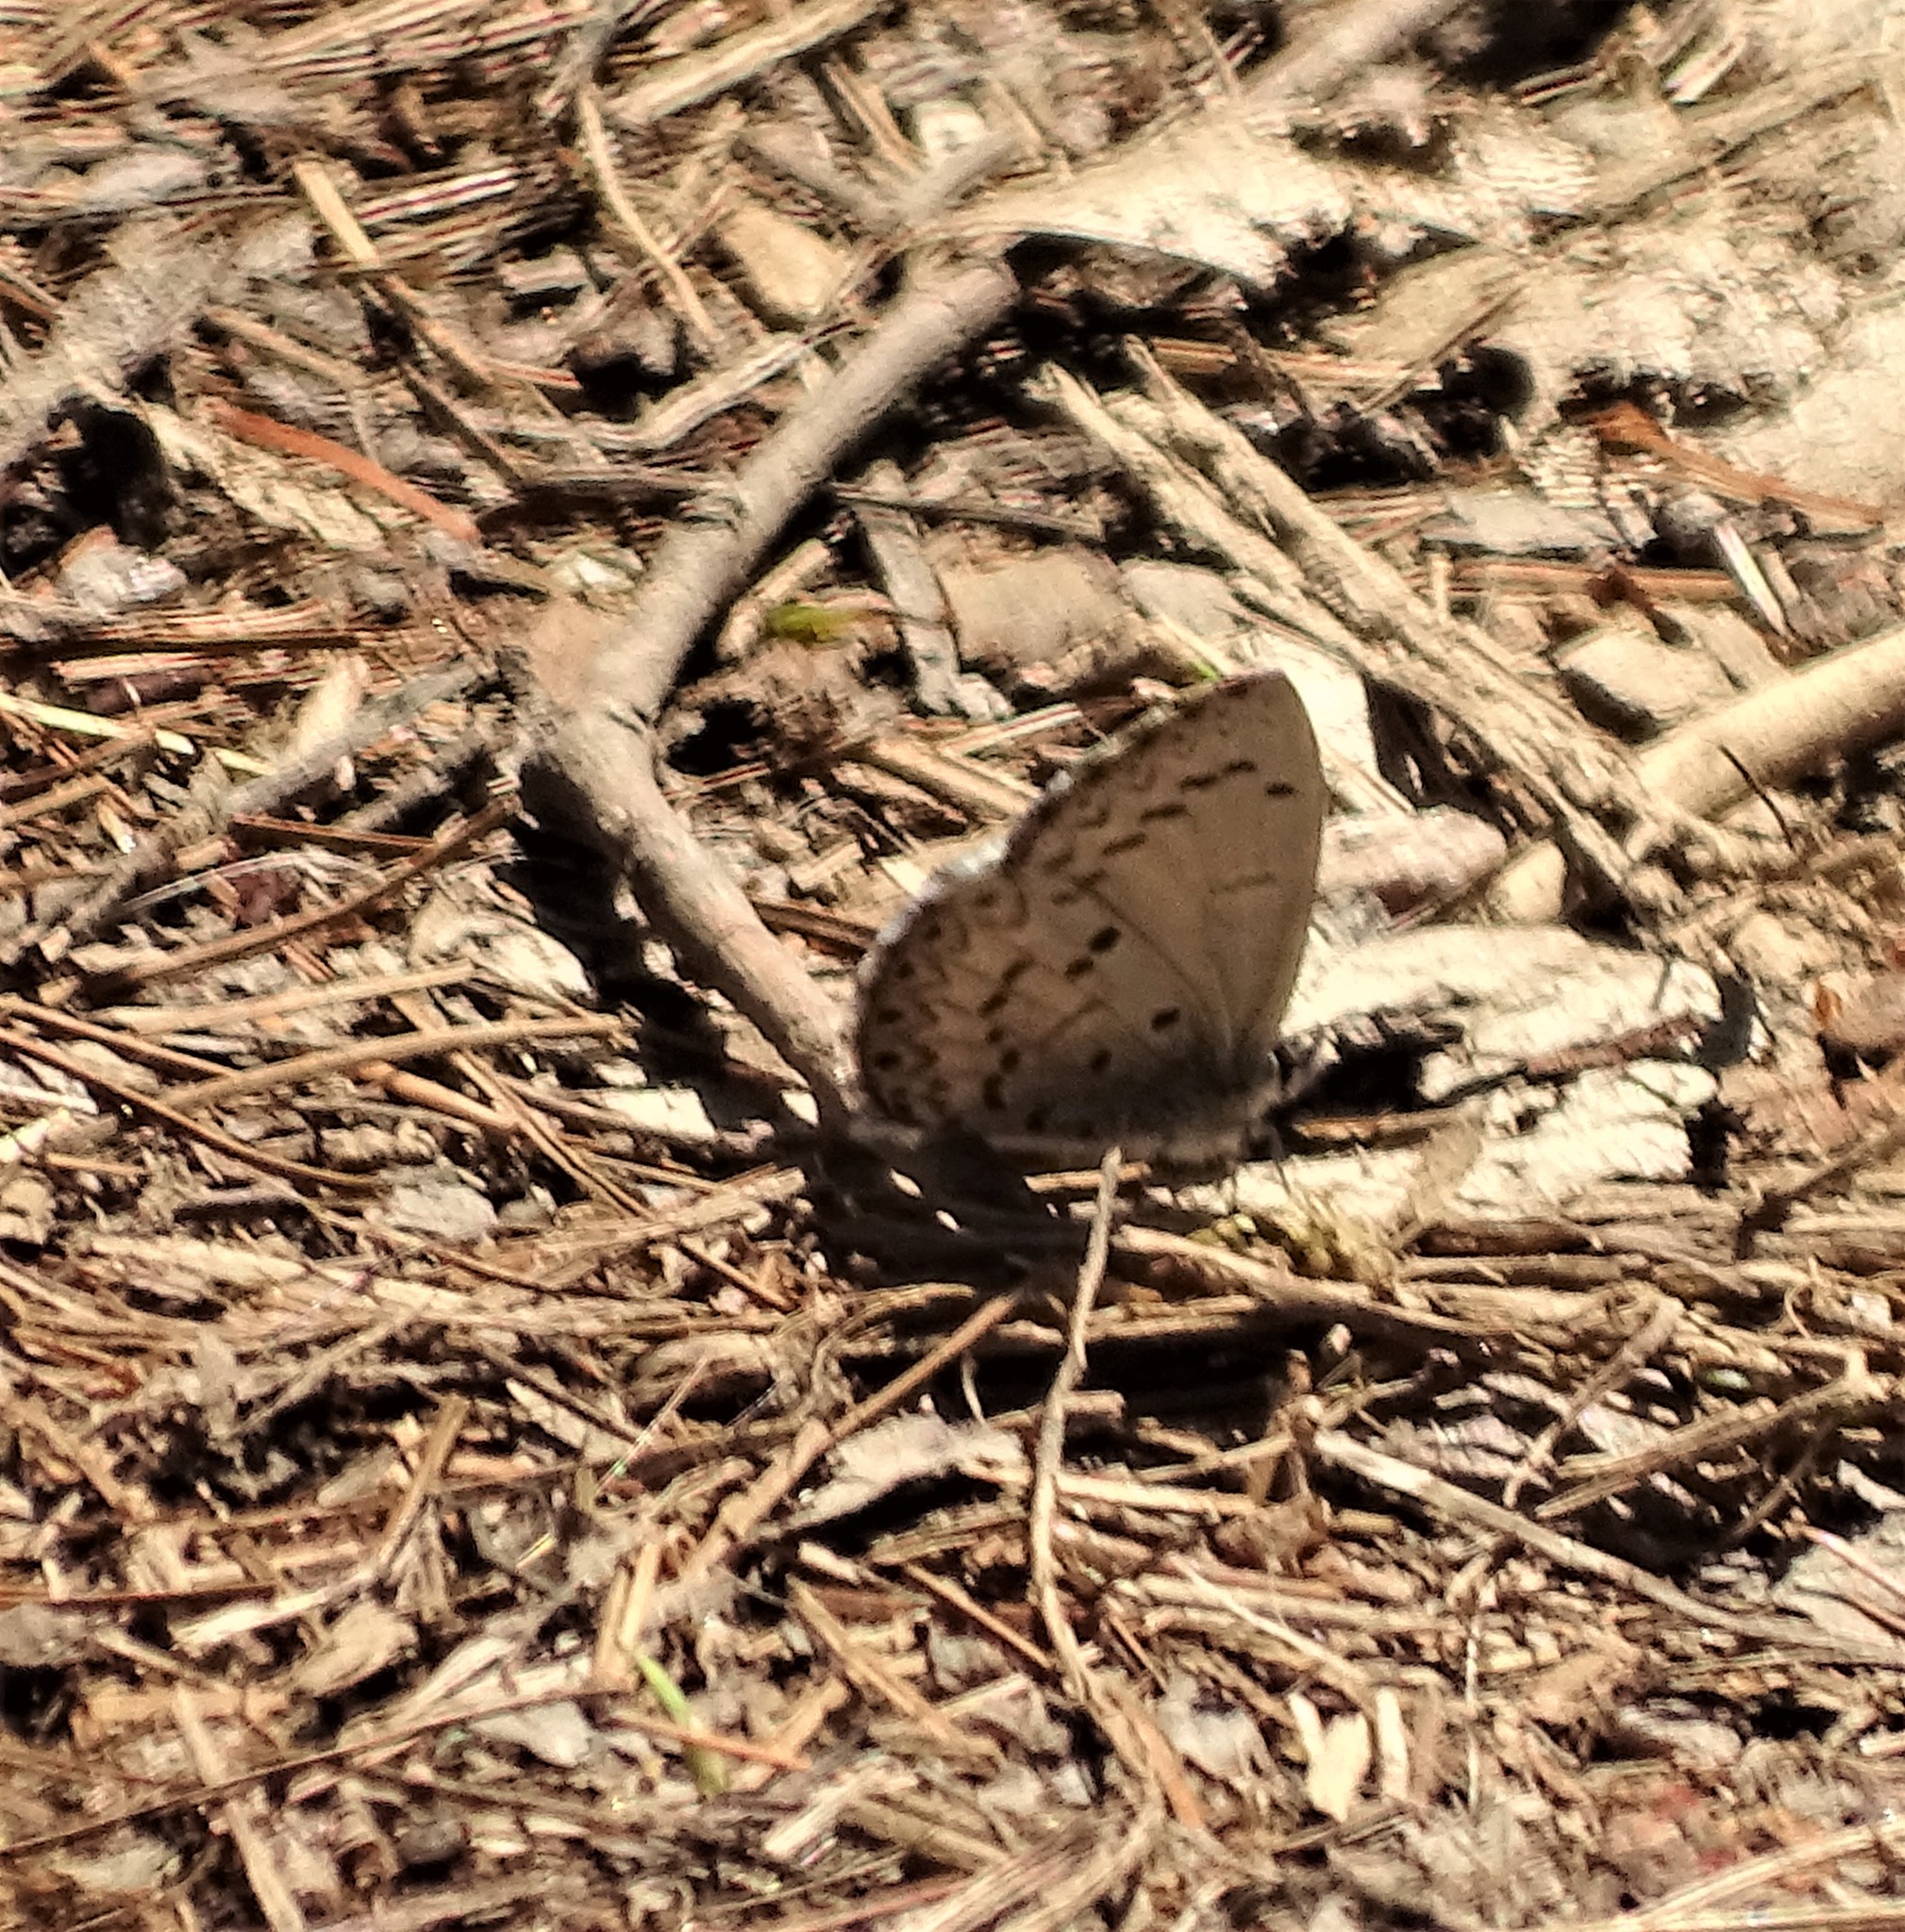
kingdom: Animalia
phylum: Arthropoda
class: Insecta
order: Lepidoptera
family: Lycaenidae
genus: Celastrina
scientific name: Celastrina lucia
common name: Lucia azure
